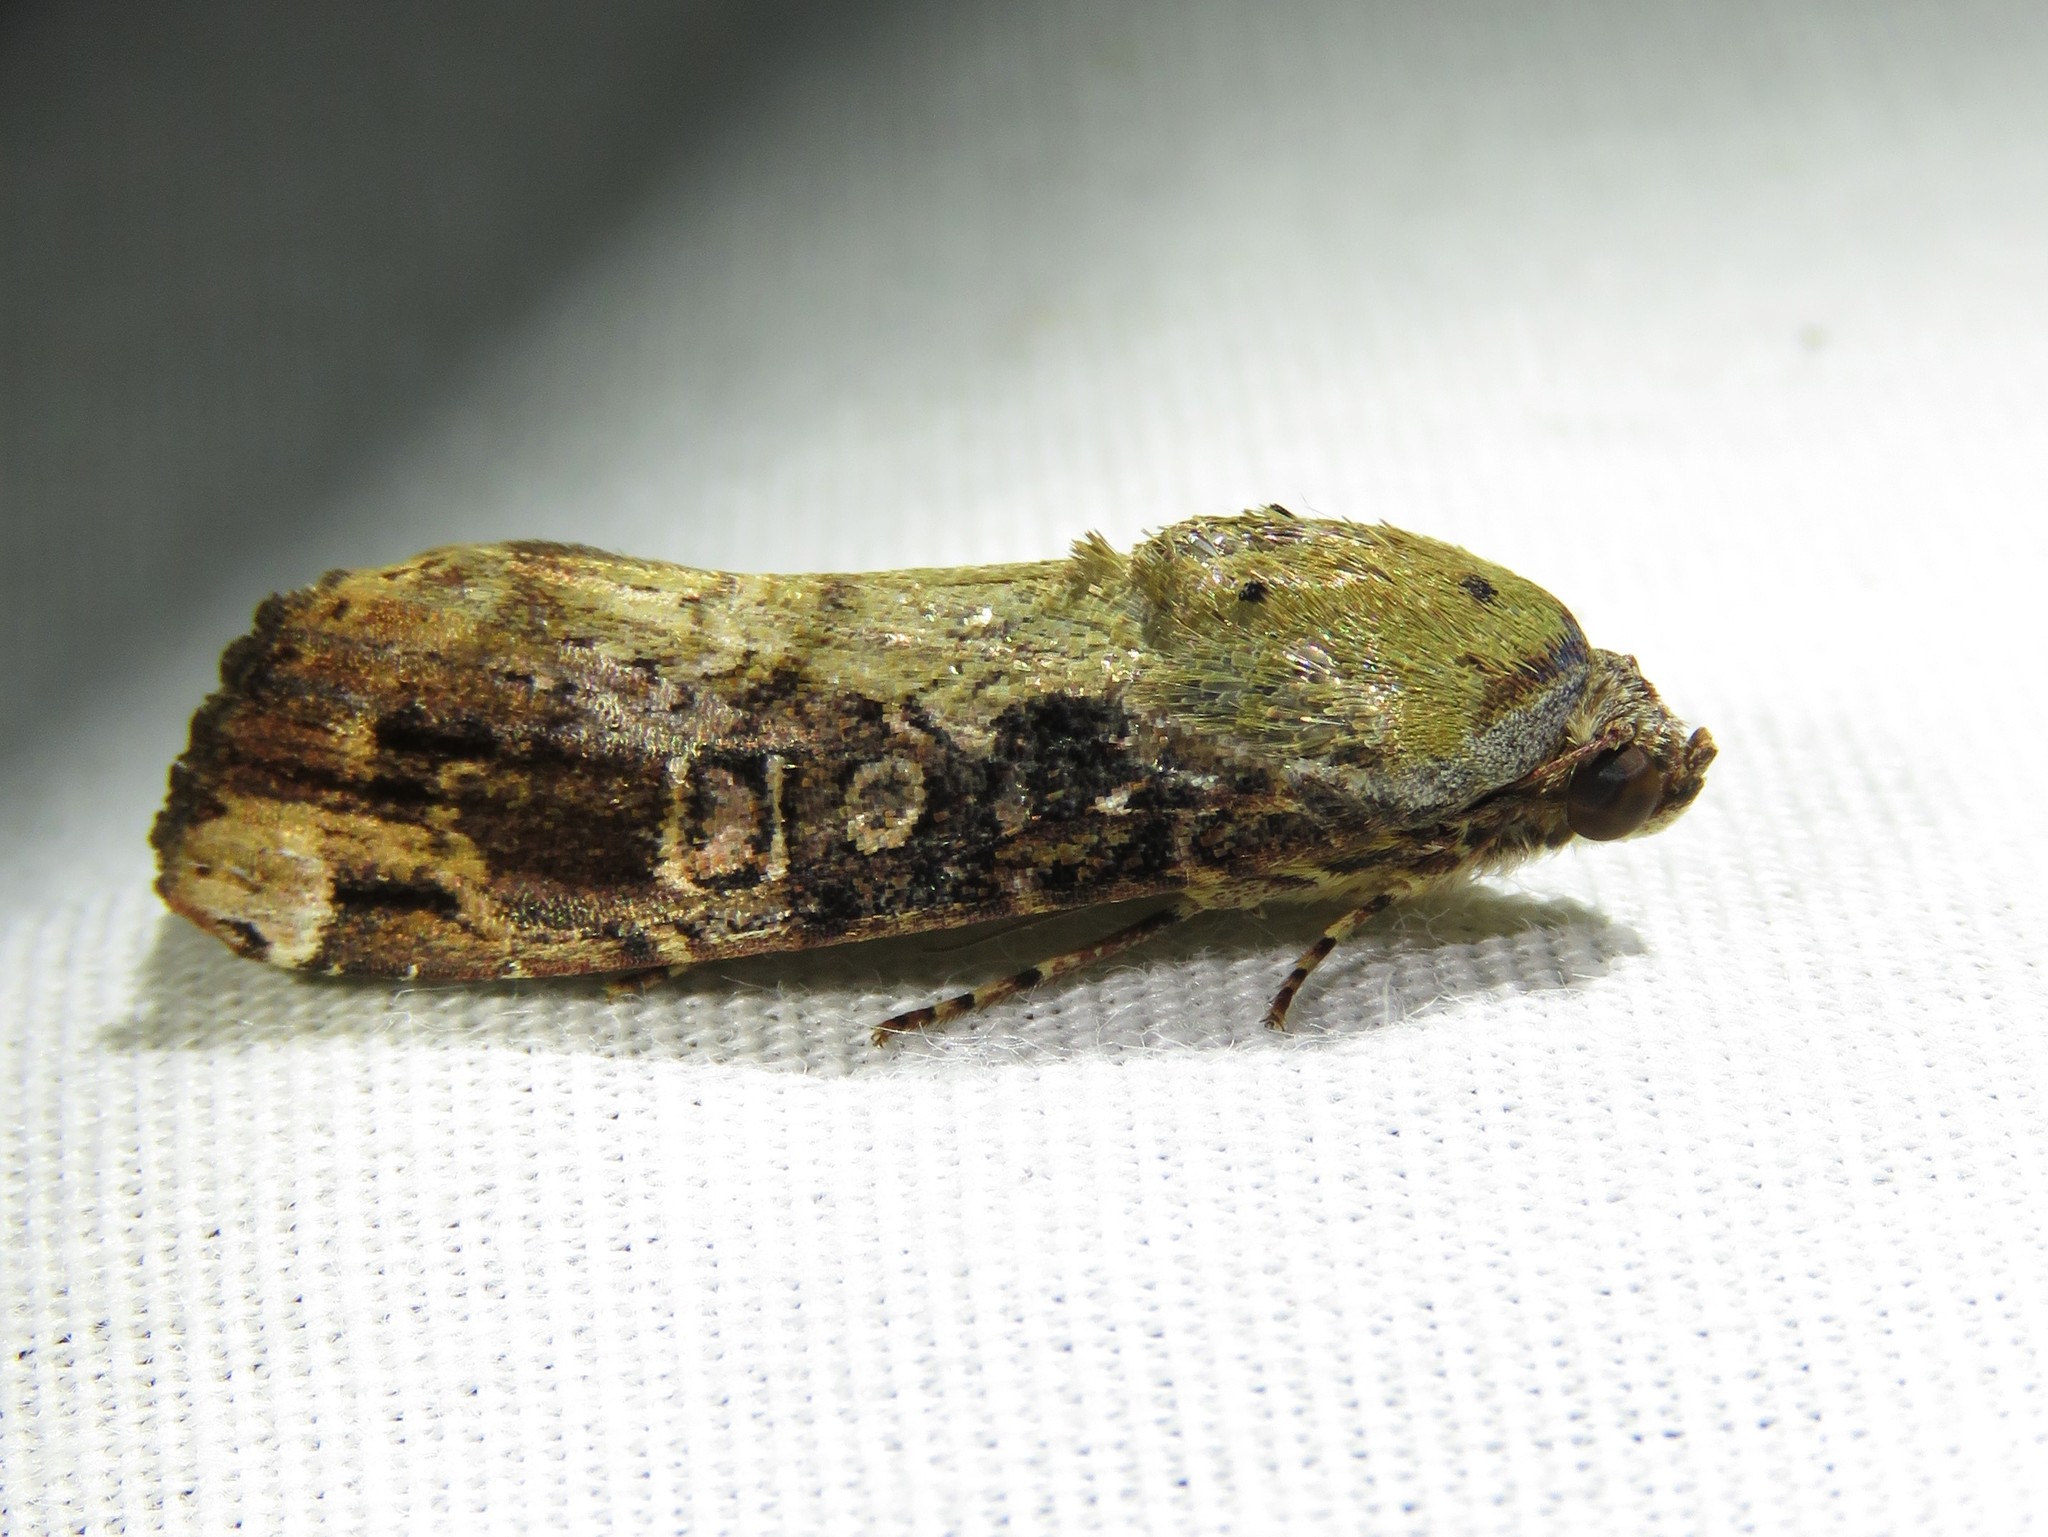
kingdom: Animalia
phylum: Arthropoda
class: Insecta
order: Lepidoptera
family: Noctuidae
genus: Magusa
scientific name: Magusa divaricata
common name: Orb narrow-winged moth
